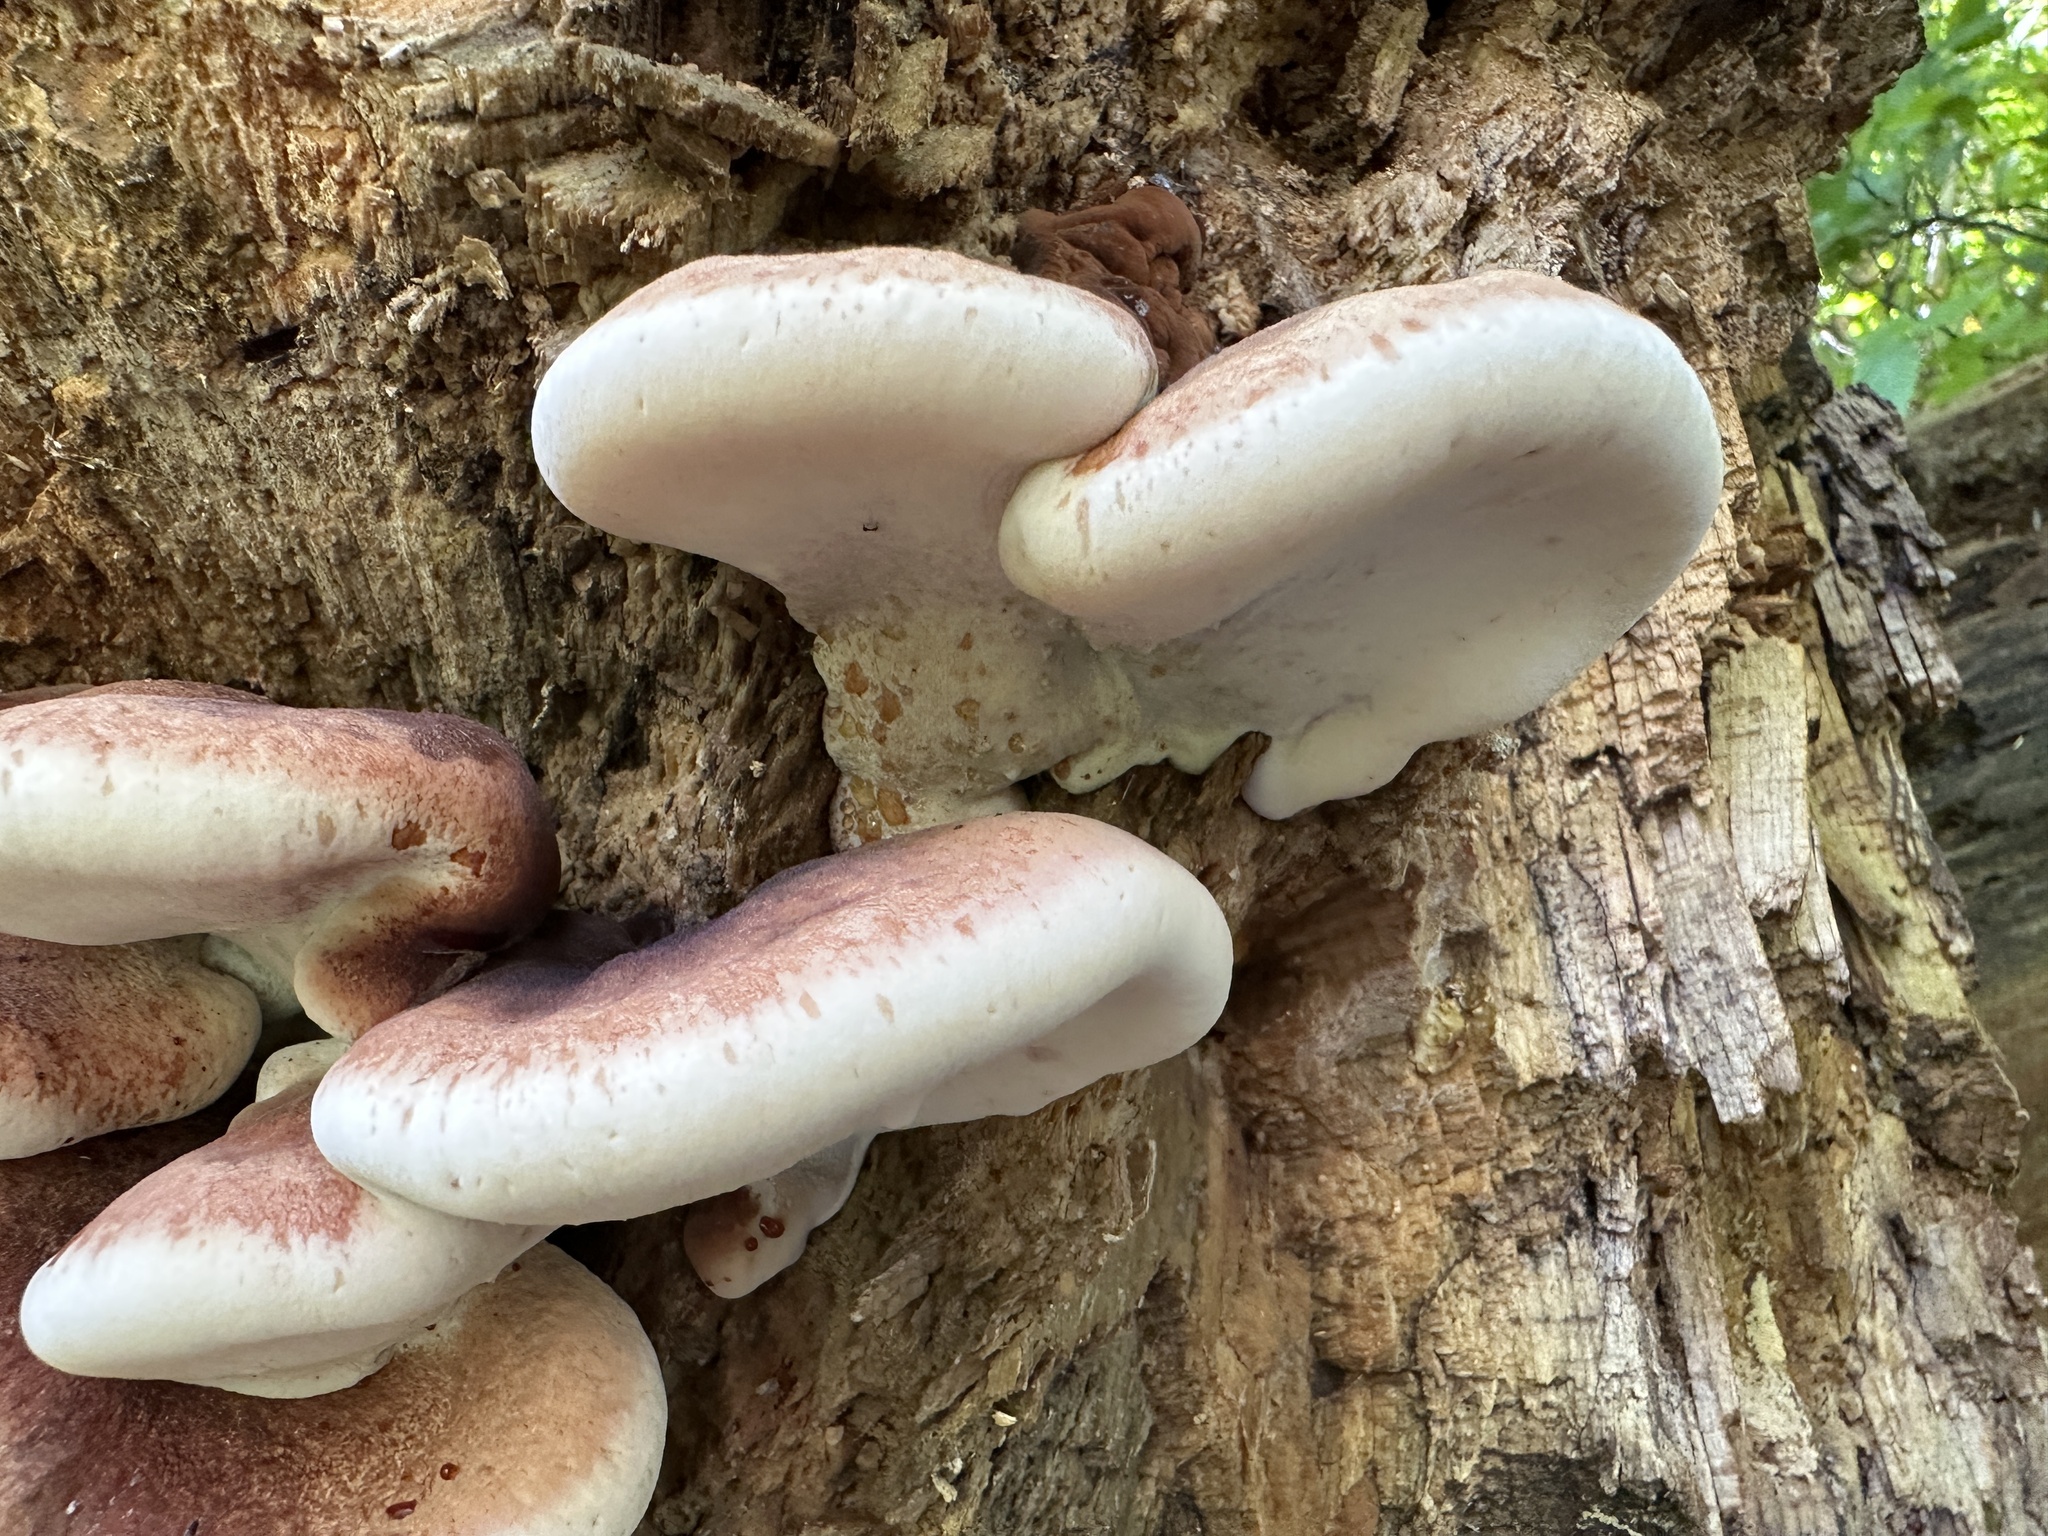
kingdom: Fungi
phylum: Basidiomycota
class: Agaricomycetes
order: Polyporales
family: Ischnodermataceae
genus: Ischnoderma
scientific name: Ischnoderma resinosum
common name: Resinous polypore
